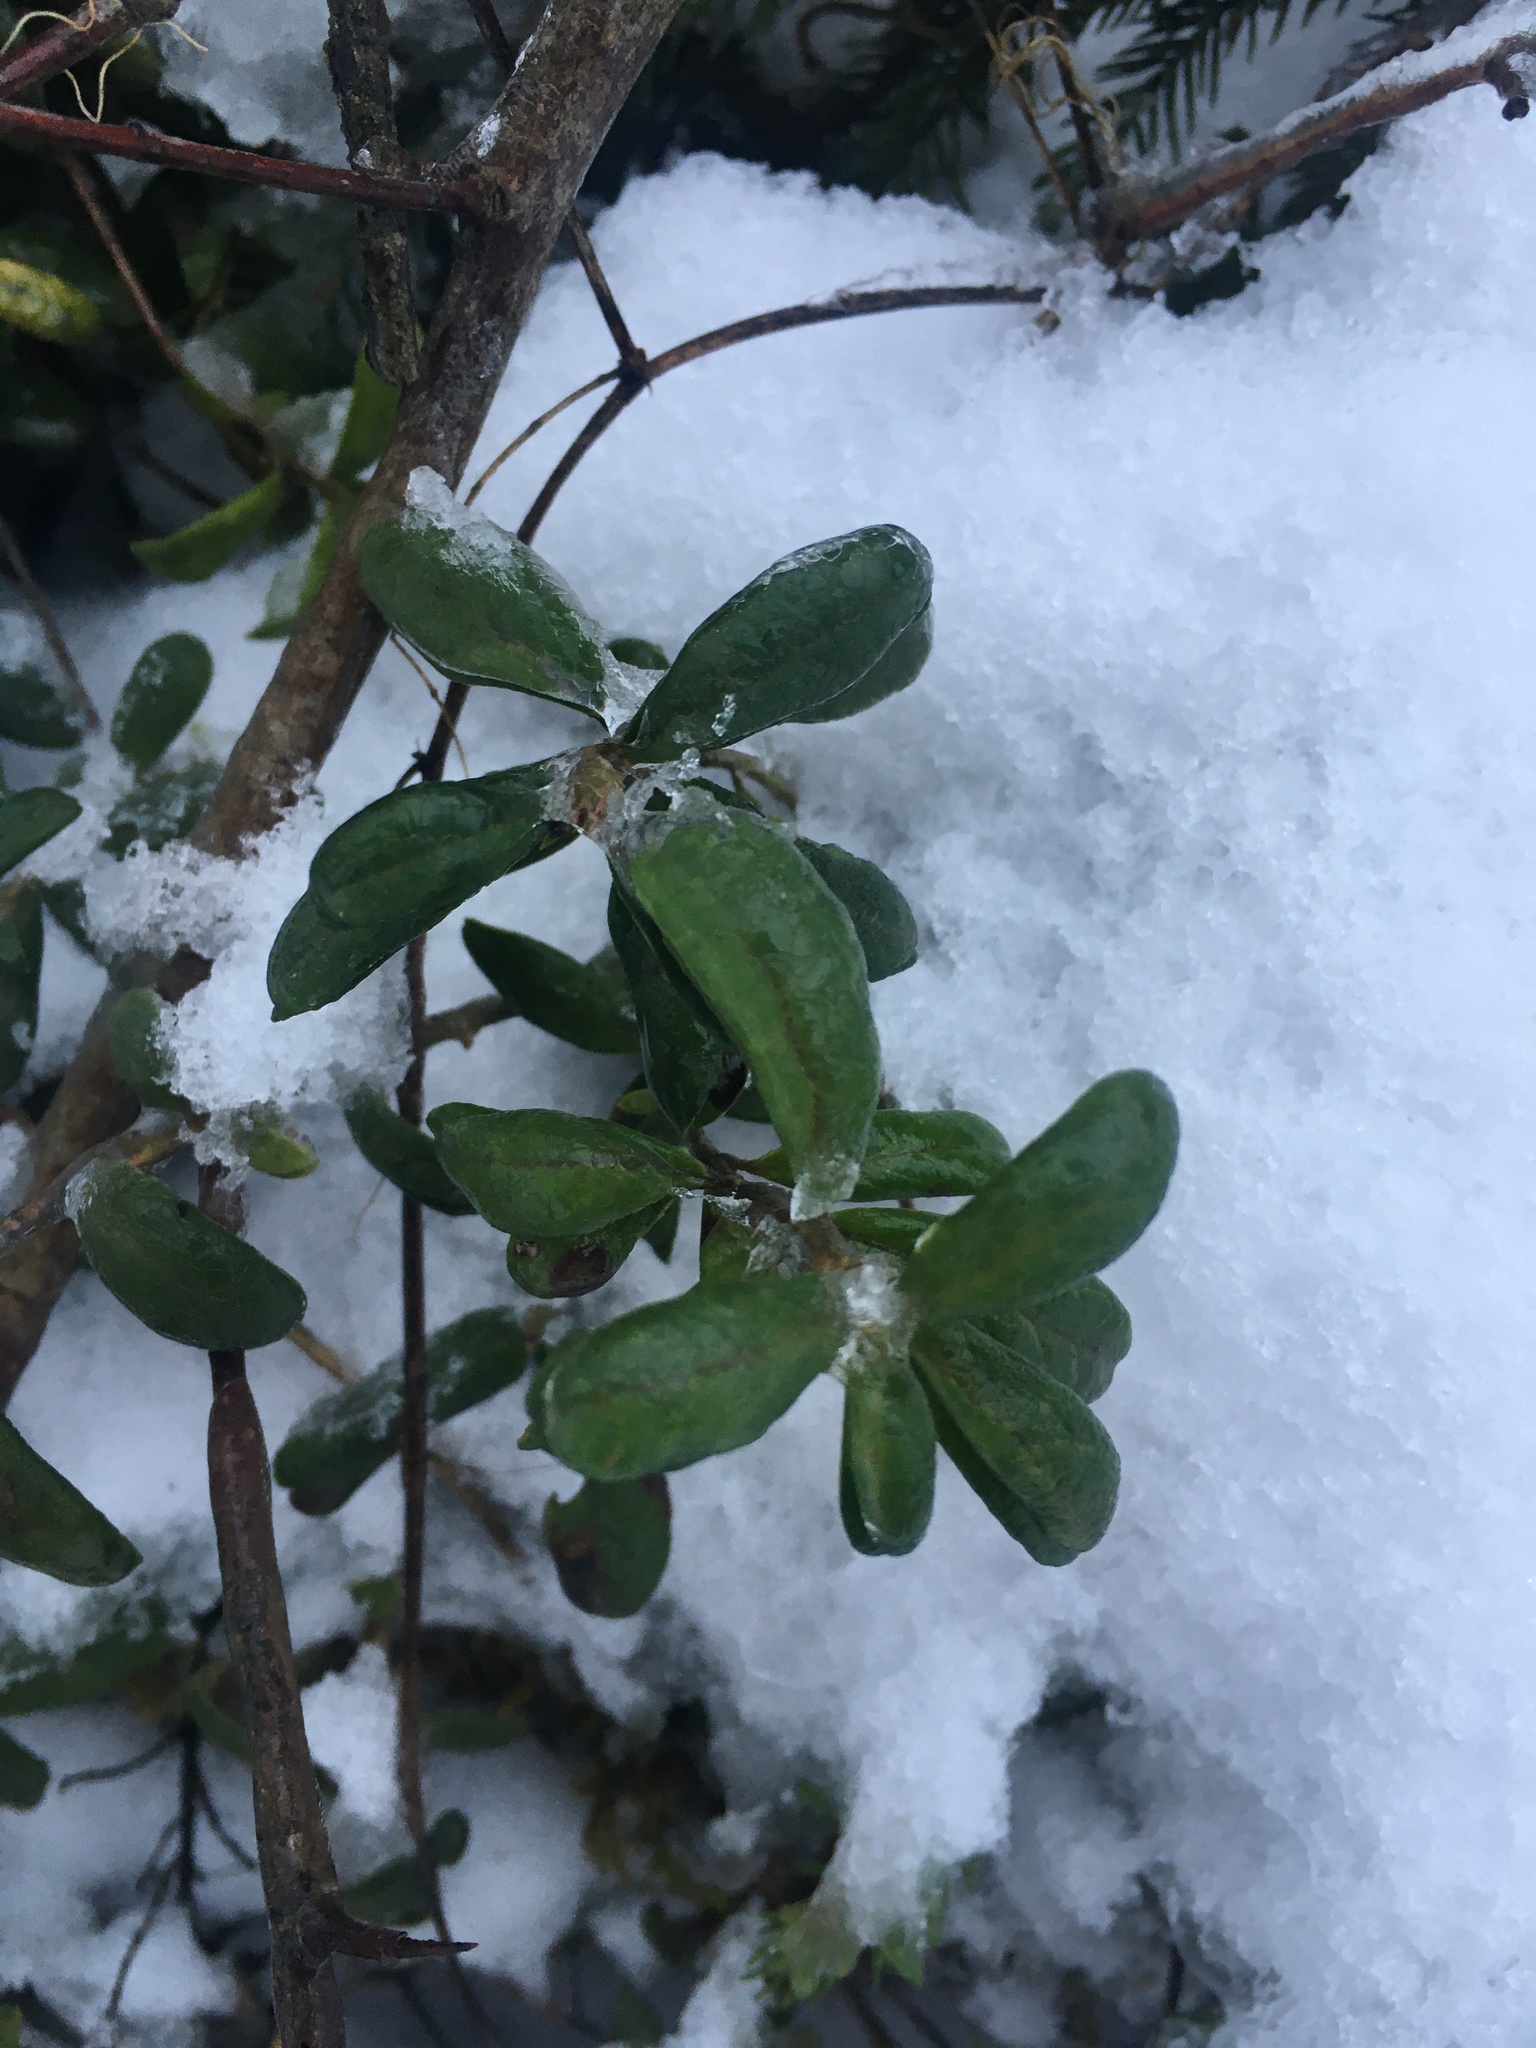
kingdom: Plantae
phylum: Tracheophyta
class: Magnoliopsida
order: Ericales
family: Ericaceae
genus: Vaccinium
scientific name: Vaccinium vitis-idaea
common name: Cowberry
